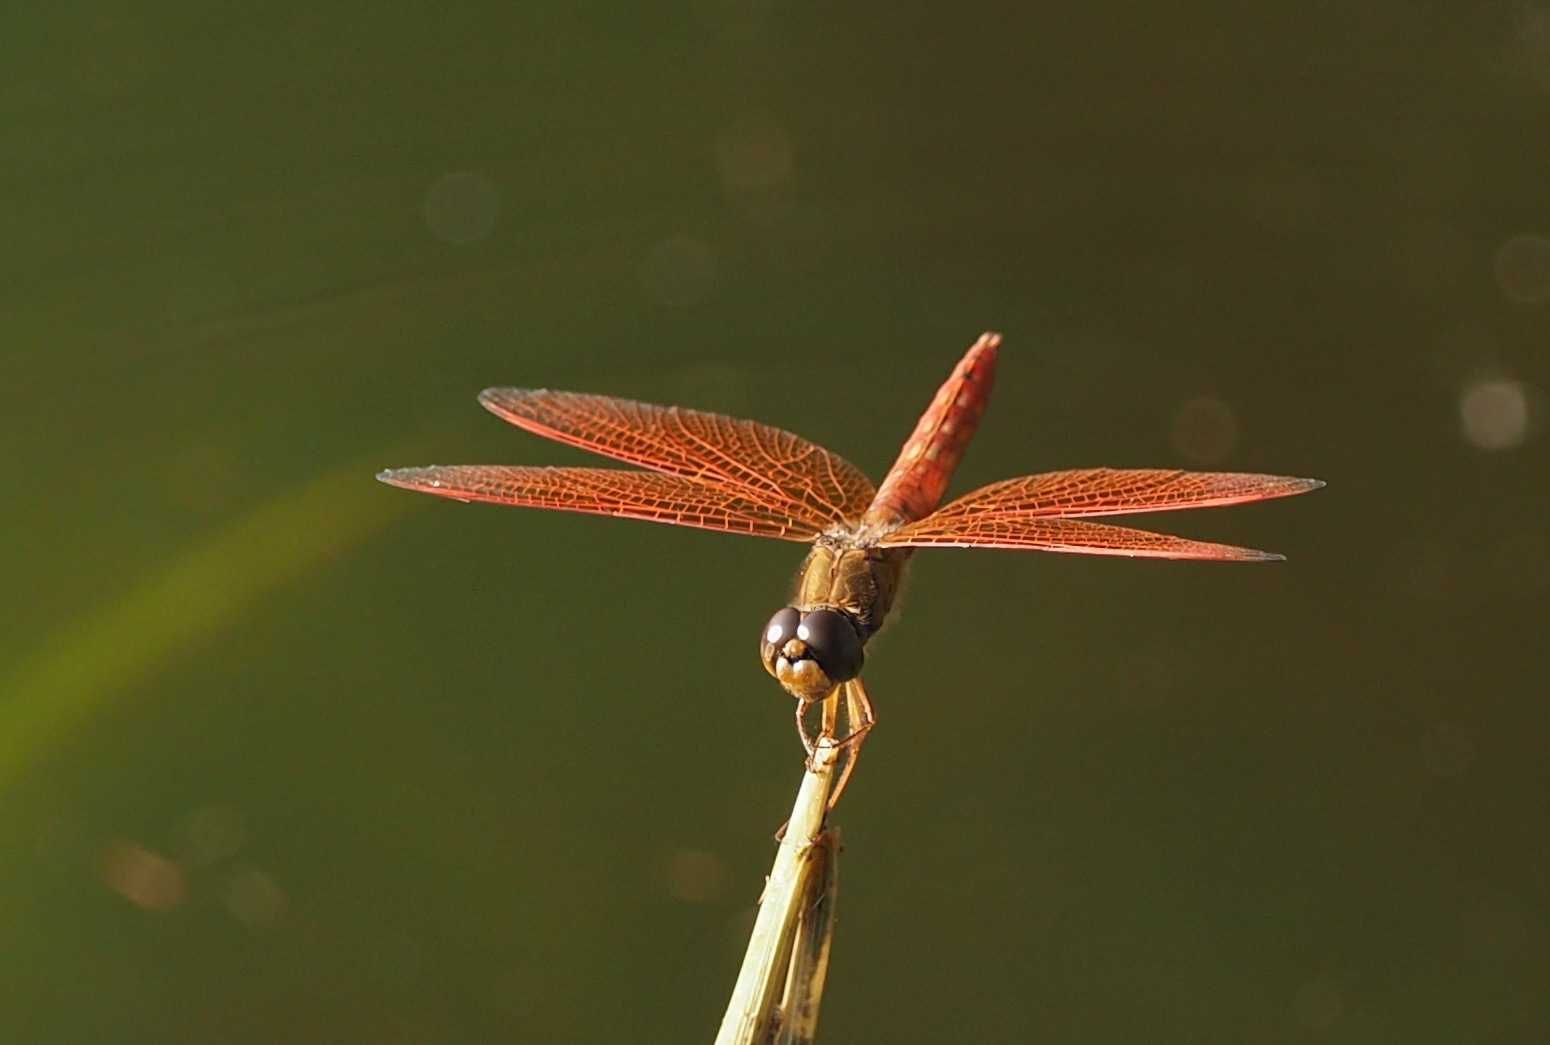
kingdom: Animalia
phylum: Arthropoda
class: Insecta
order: Odonata
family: Libellulidae
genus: Brachythemis
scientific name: Brachythemis contaminata
